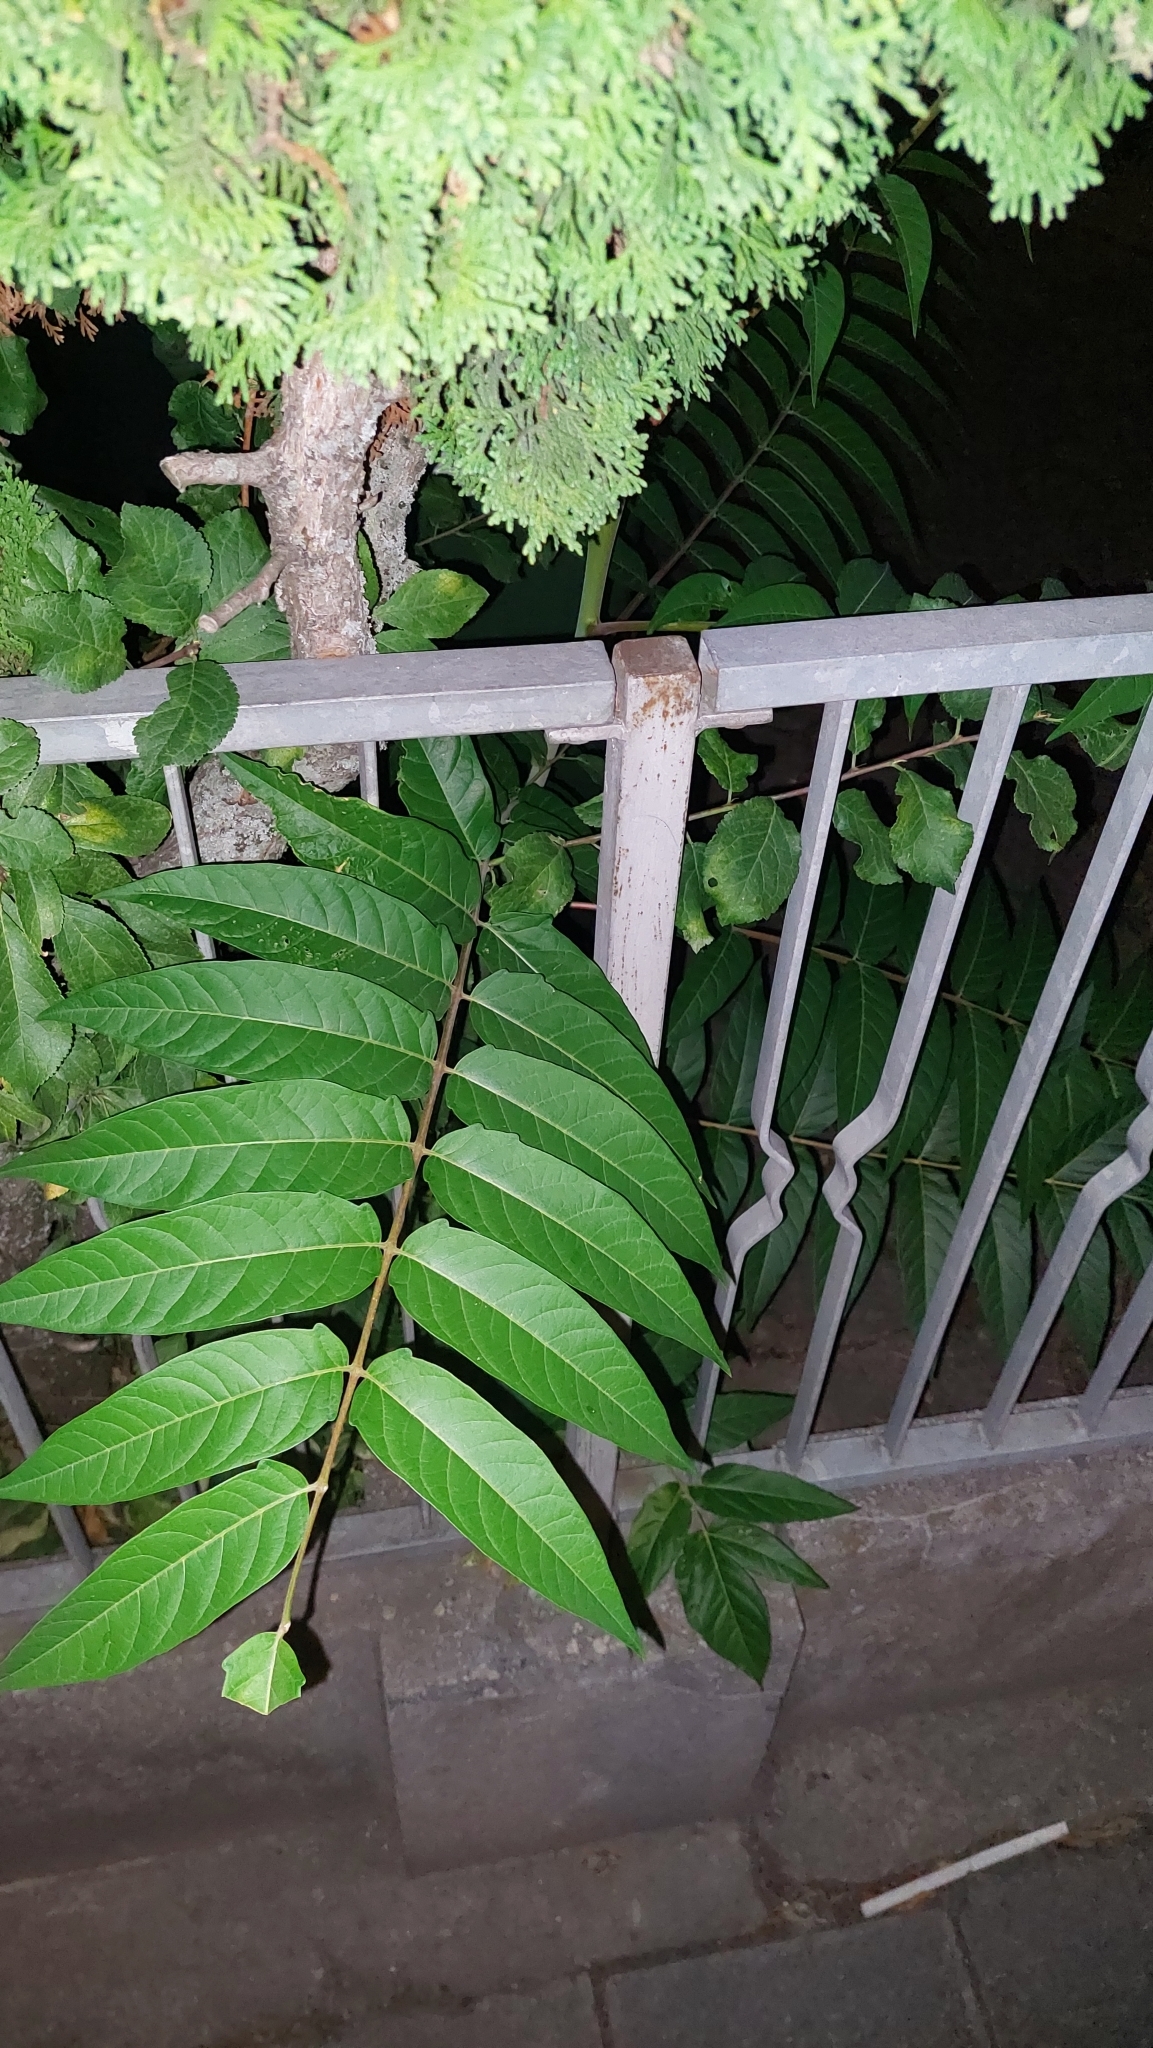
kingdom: Plantae
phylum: Tracheophyta
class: Magnoliopsida
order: Sapindales
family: Simaroubaceae
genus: Ailanthus
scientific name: Ailanthus altissima
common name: Tree-of-heaven
